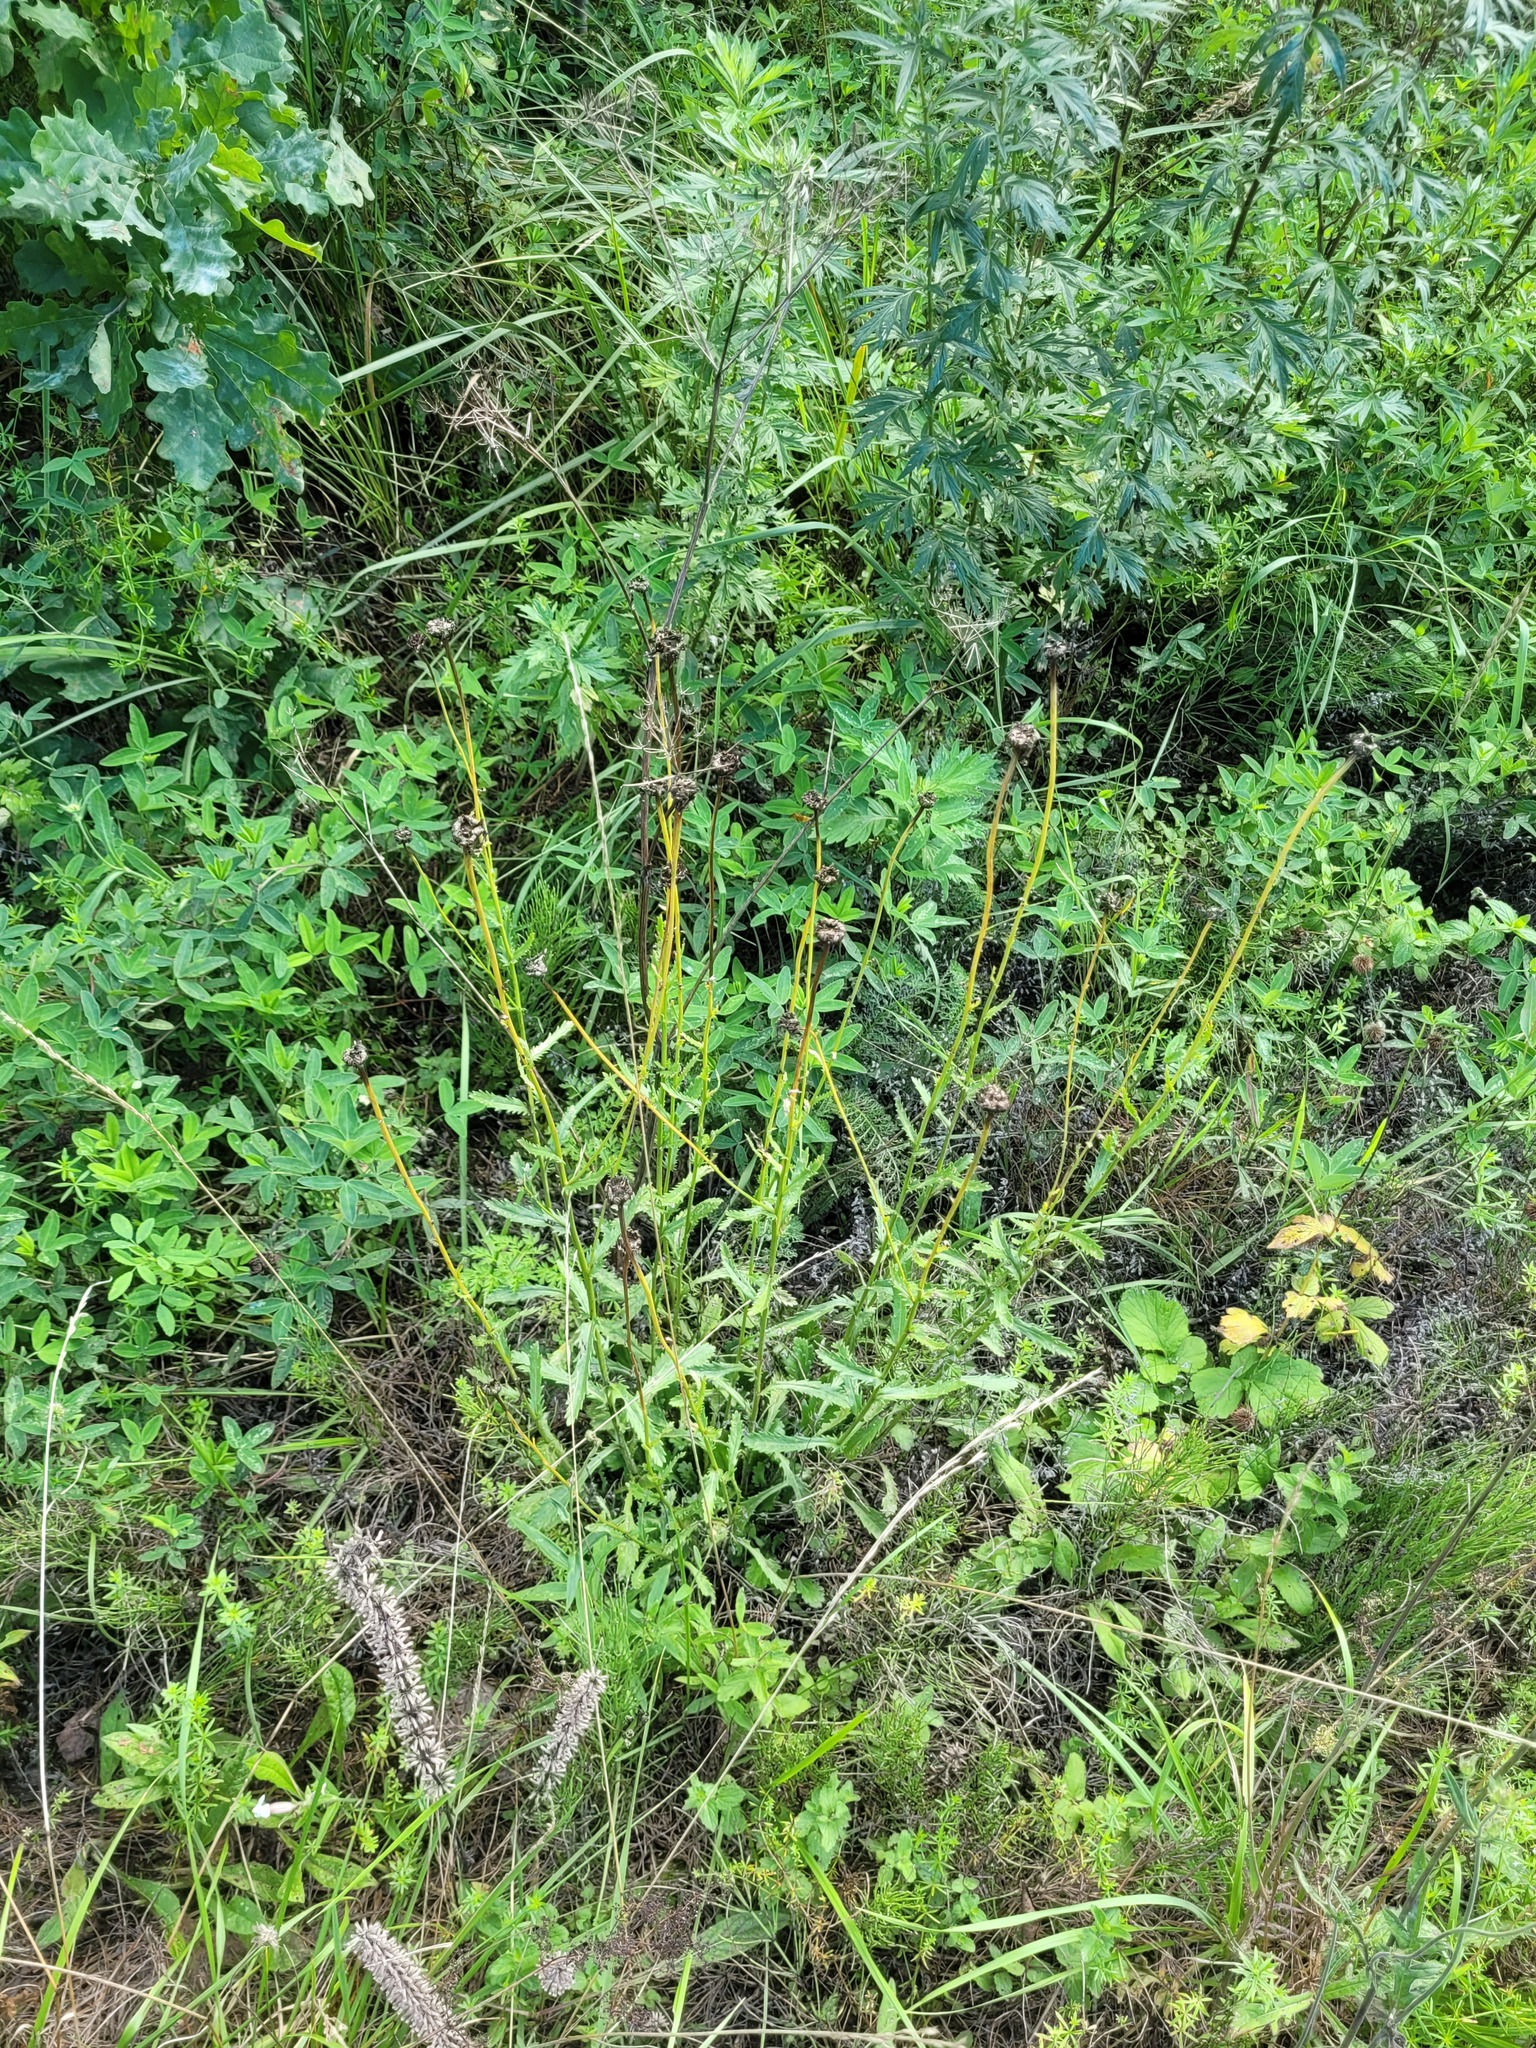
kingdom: Plantae
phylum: Tracheophyta
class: Magnoliopsida
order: Asterales
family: Asteraceae
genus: Leucanthemum
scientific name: Leucanthemum vulgare
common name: Oxeye daisy
